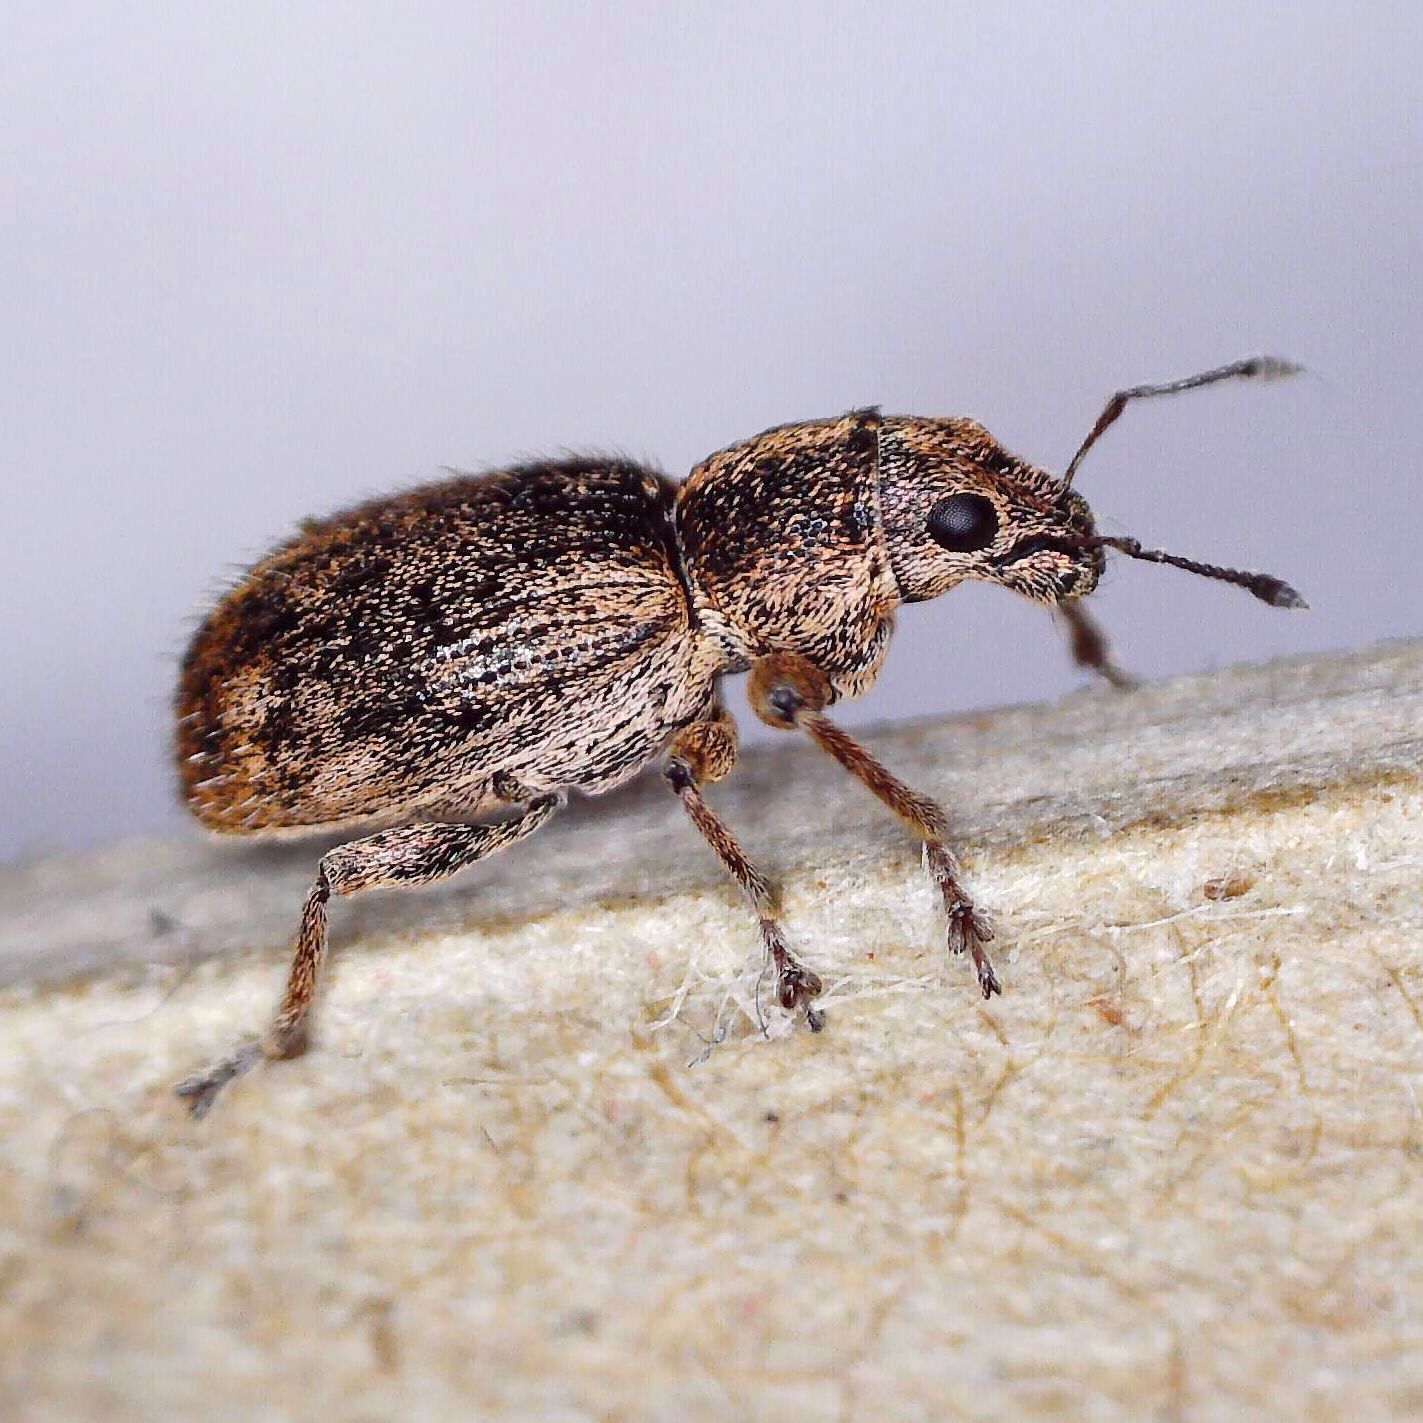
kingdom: Animalia
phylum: Arthropoda
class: Insecta
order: Coleoptera
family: Curculionidae
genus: Andrion
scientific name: Andrion regensteinense
